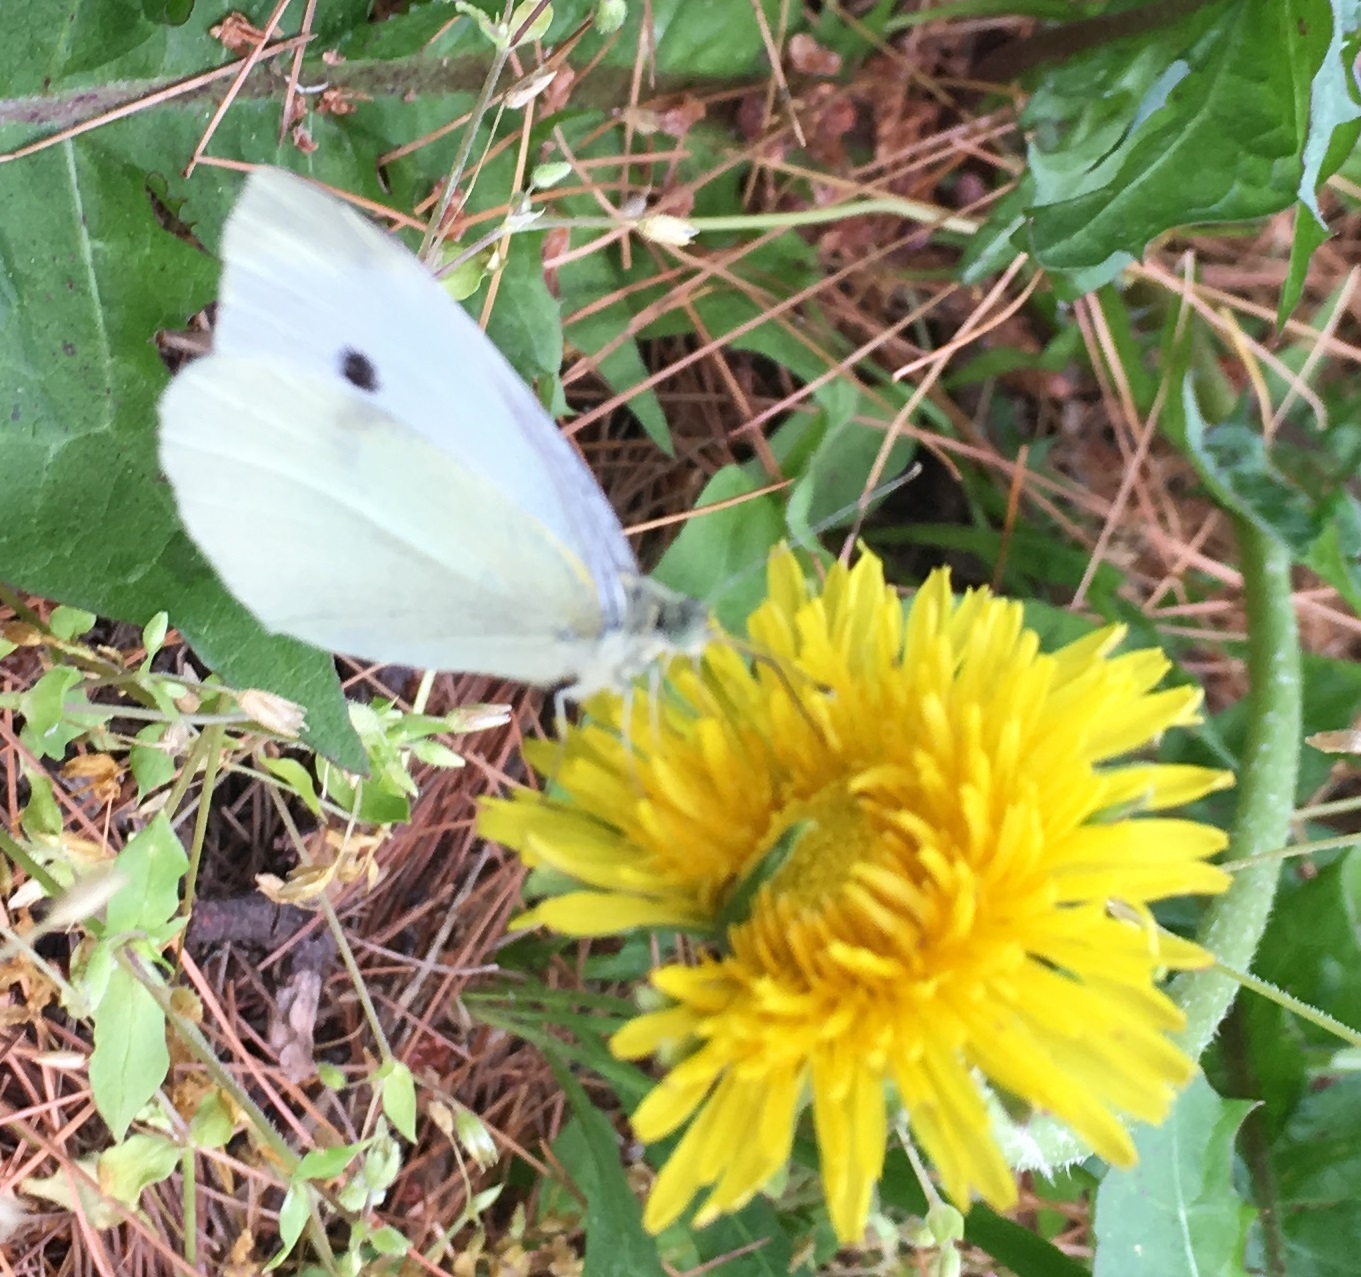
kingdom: Animalia
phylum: Arthropoda
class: Insecta
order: Lepidoptera
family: Pieridae
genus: Pieris
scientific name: Pieris rapae
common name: Small white
